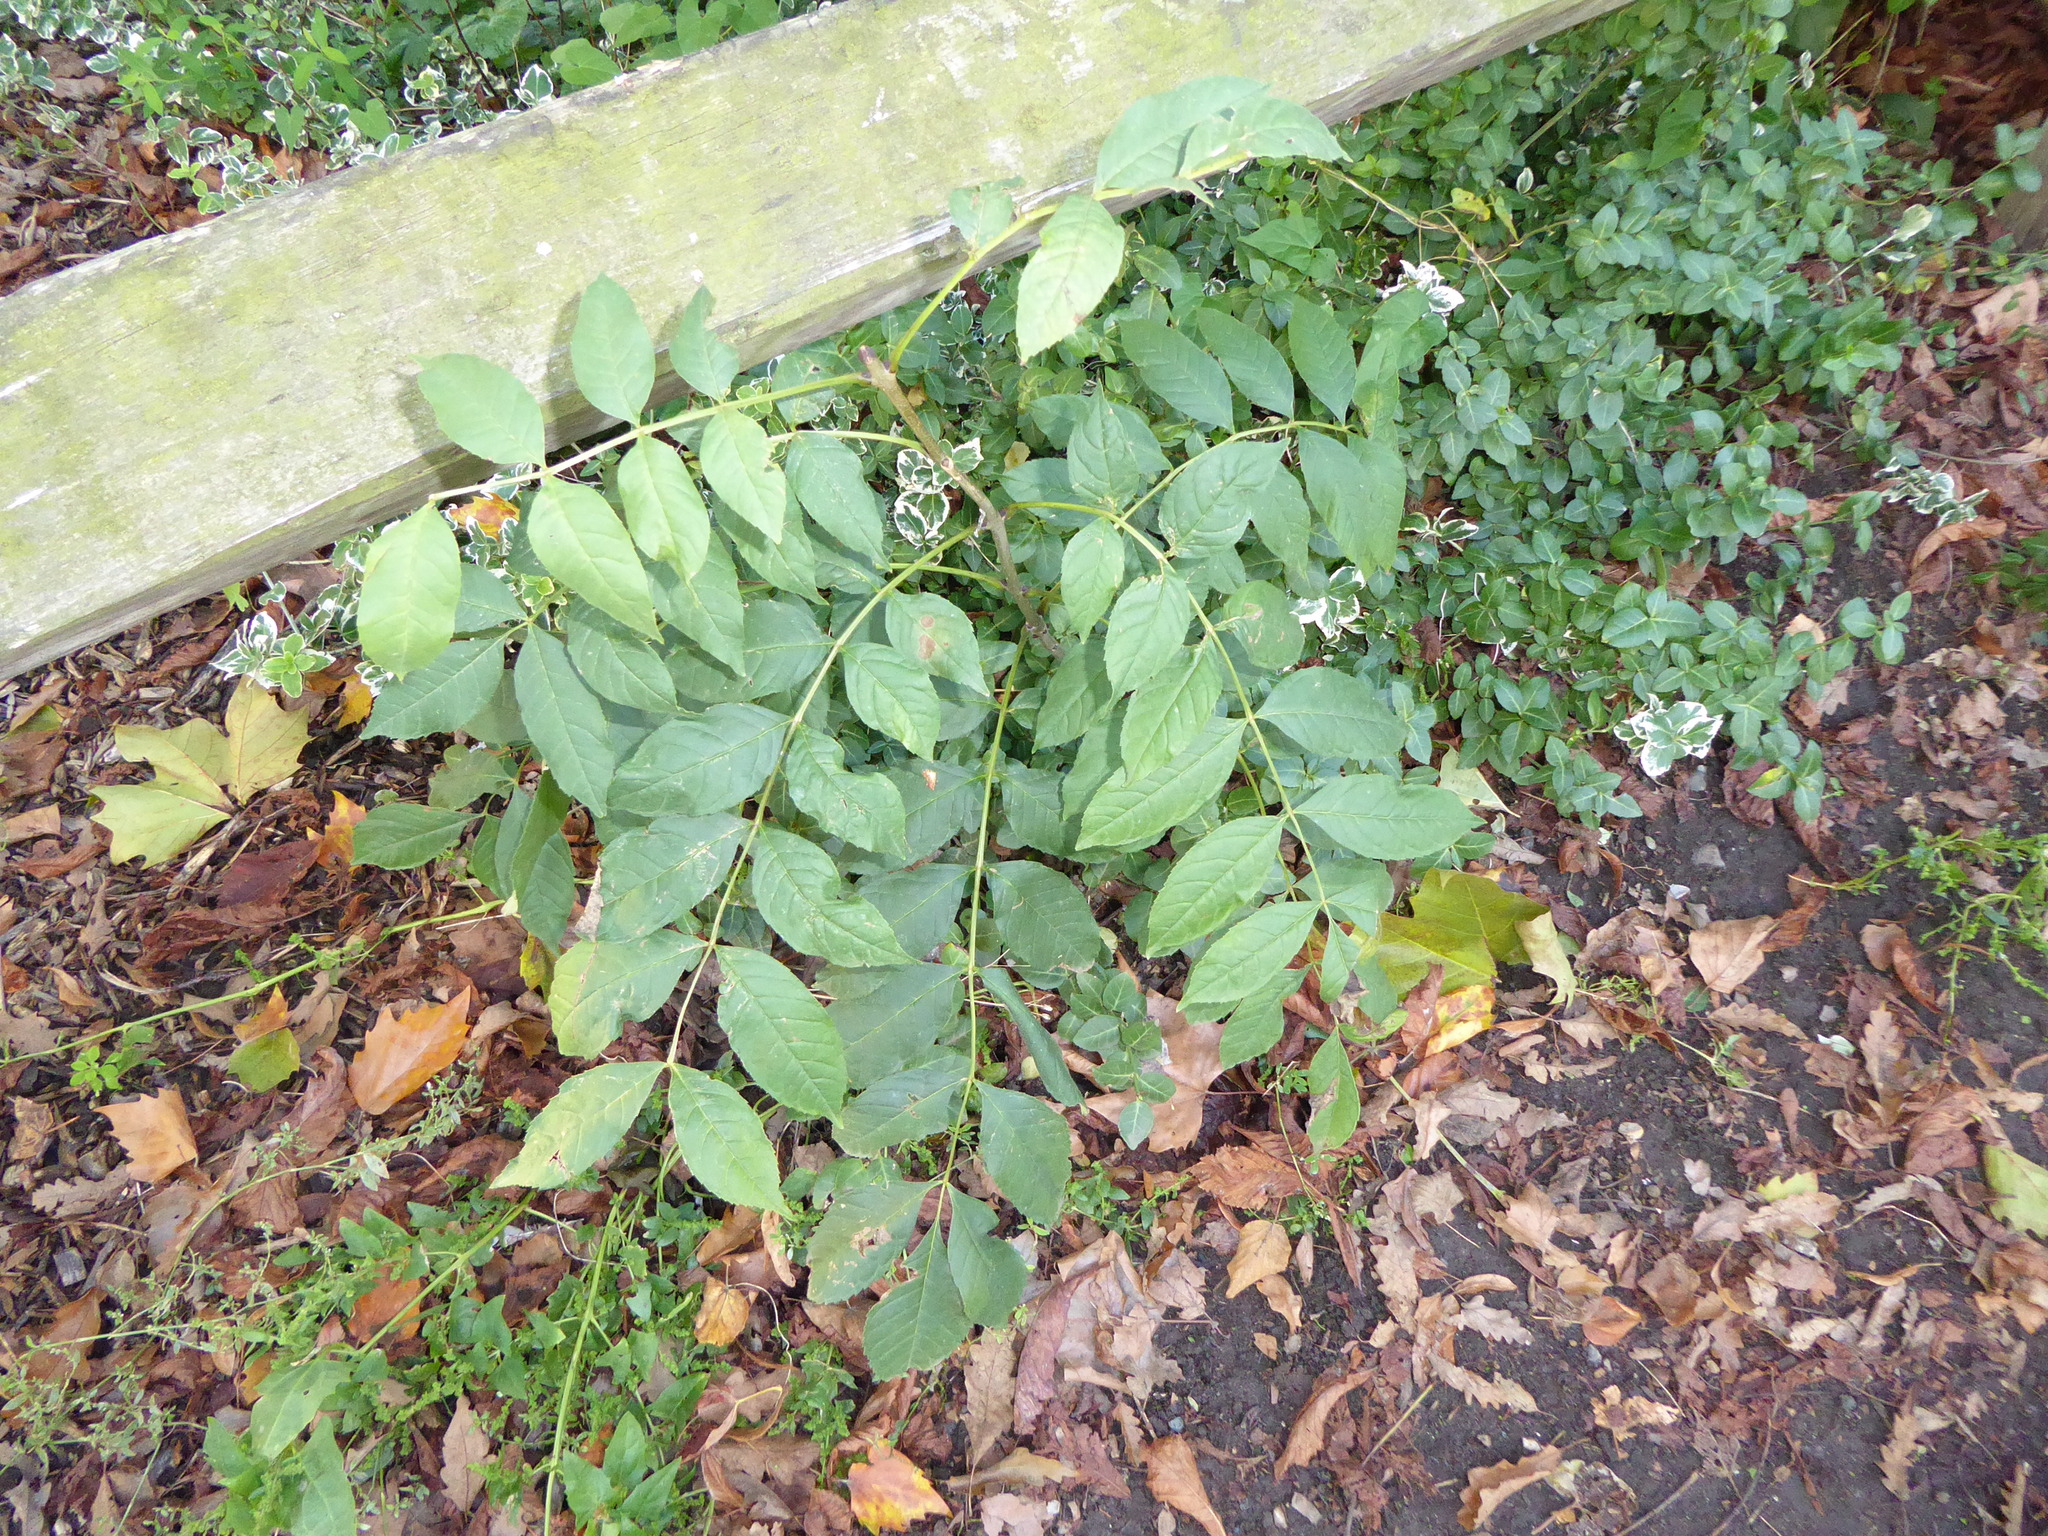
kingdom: Plantae
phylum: Tracheophyta
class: Magnoliopsida
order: Lamiales
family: Oleaceae
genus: Fraxinus
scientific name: Fraxinus excelsior
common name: European ash
